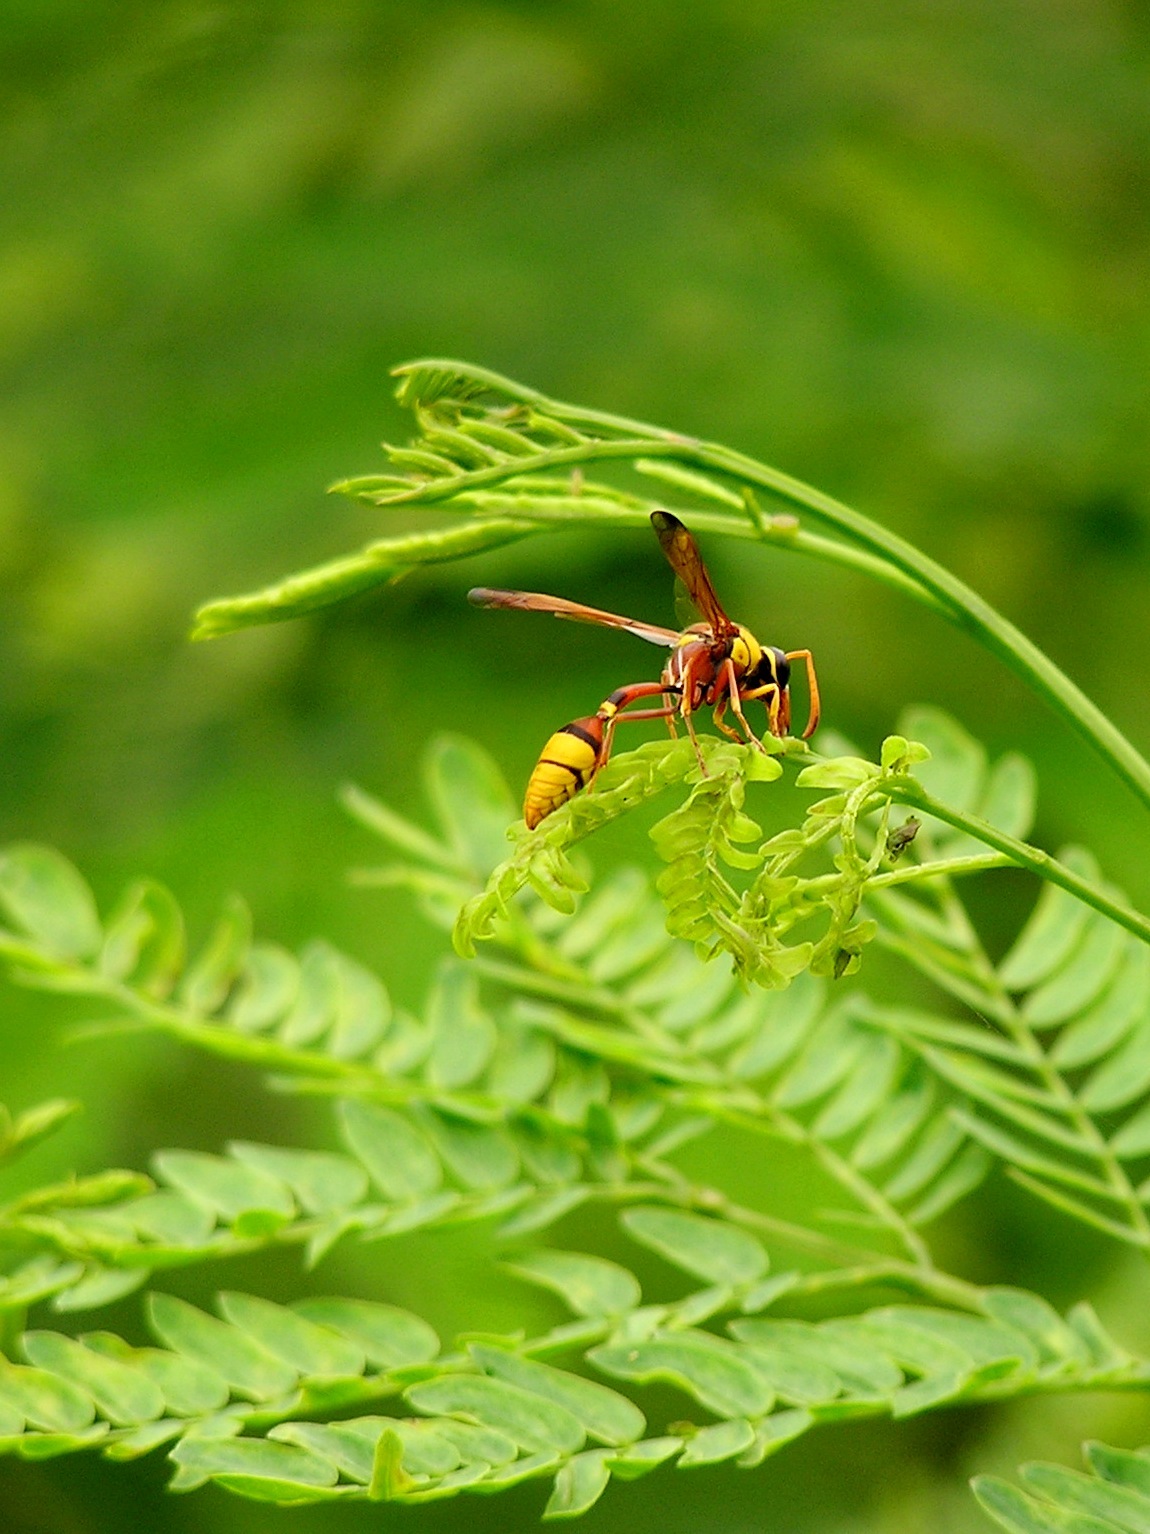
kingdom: Animalia
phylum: Arthropoda
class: Insecta
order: Hymenoptera
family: Eumenidae
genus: Delta
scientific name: Delta esuriens
